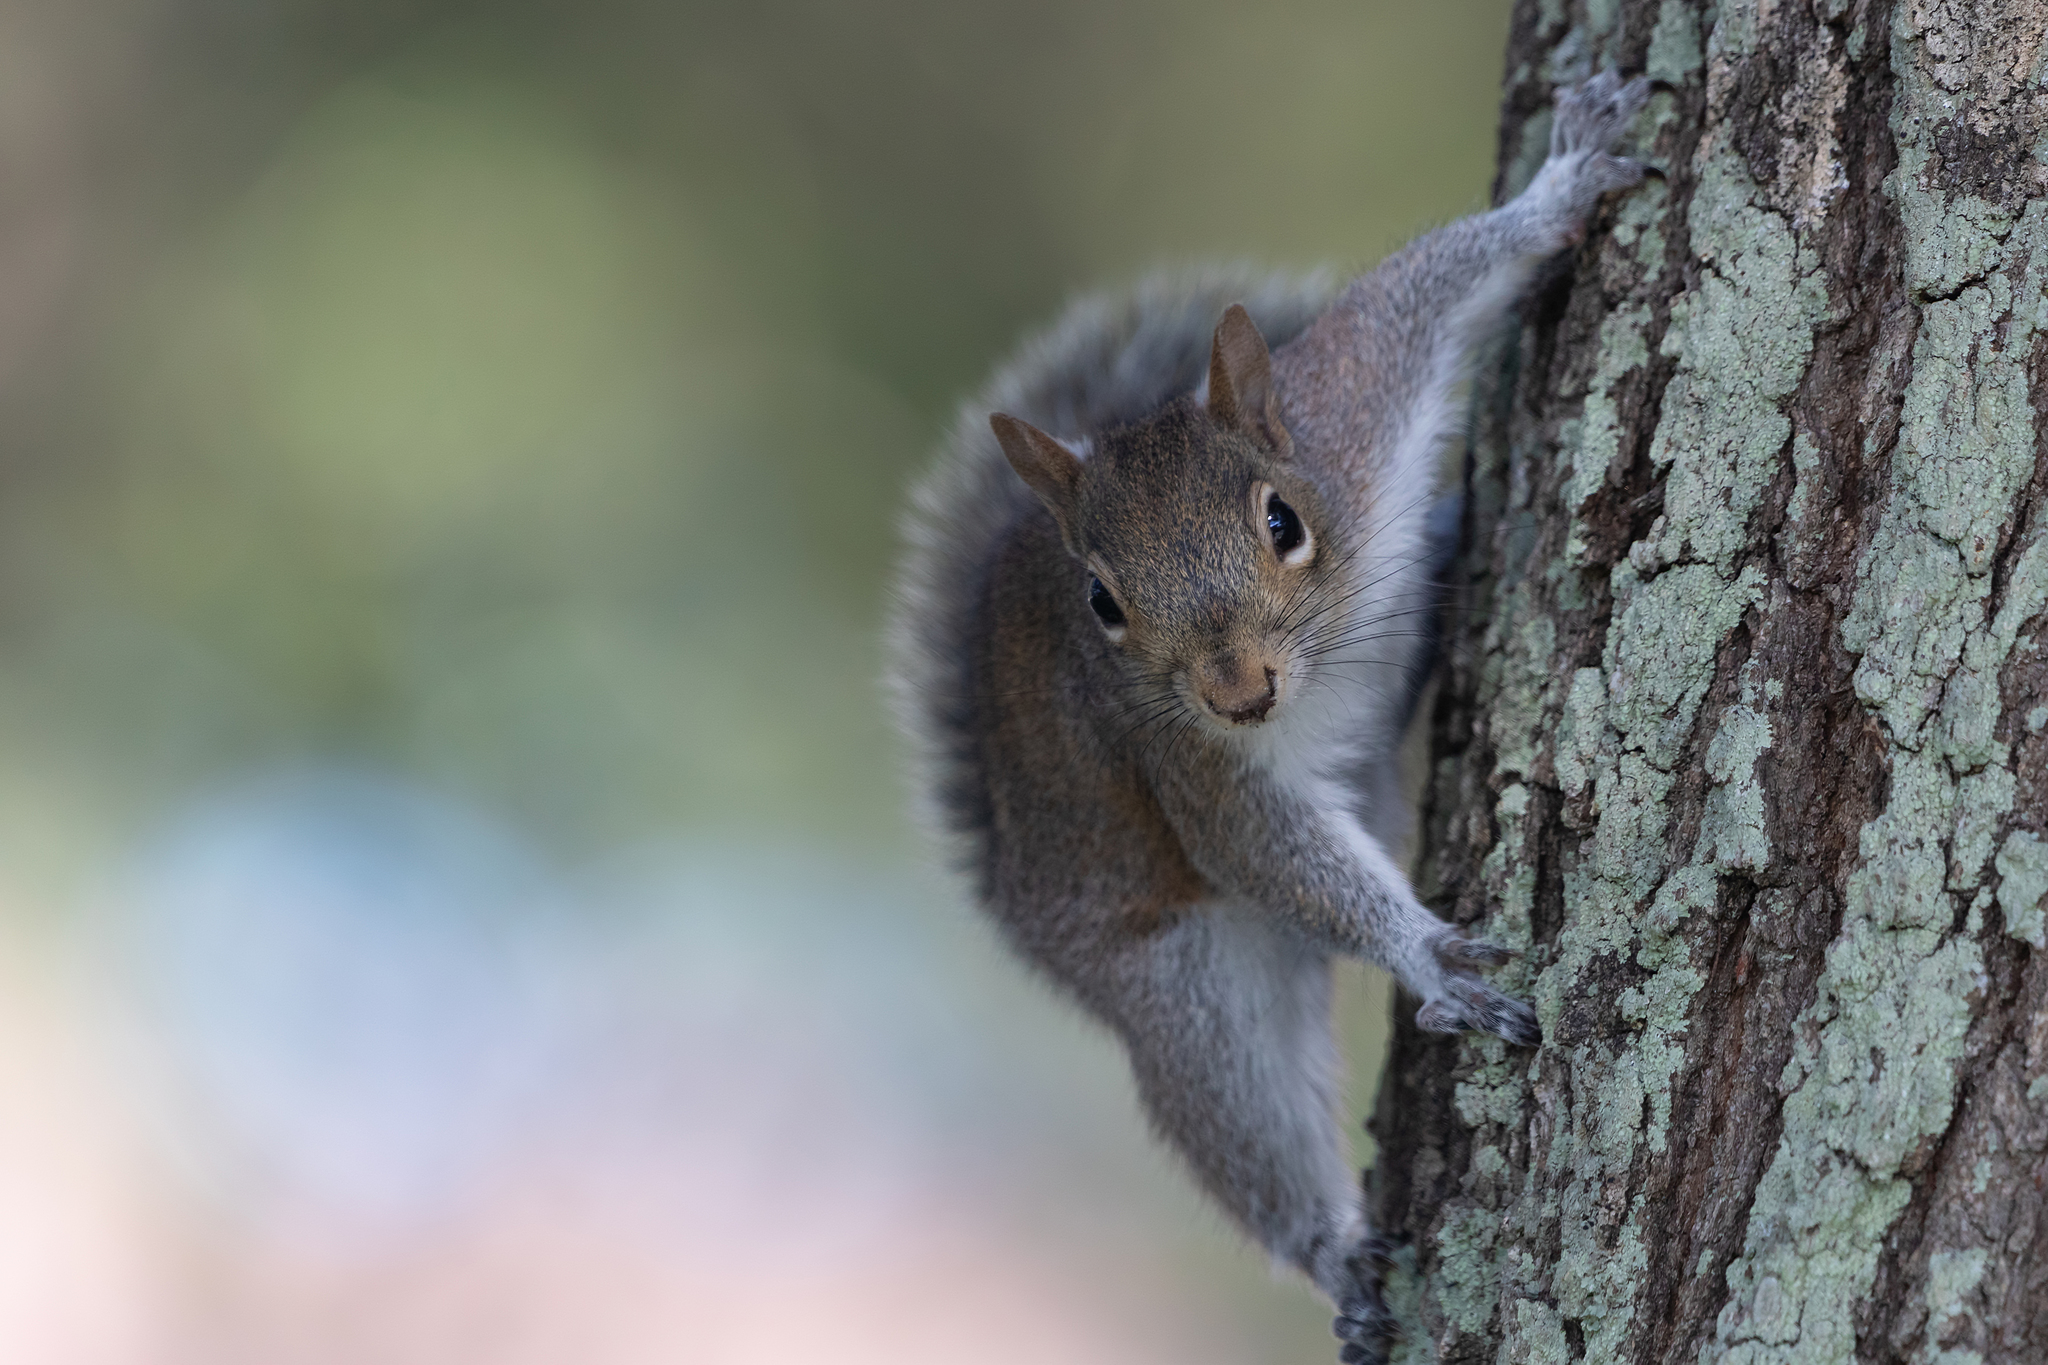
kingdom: Animalia
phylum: Chordata
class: Mammalia
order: Rodentia
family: Sciuridae
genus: Sciurus
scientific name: Sciurus carolinensis
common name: Eastern gray squirrel
